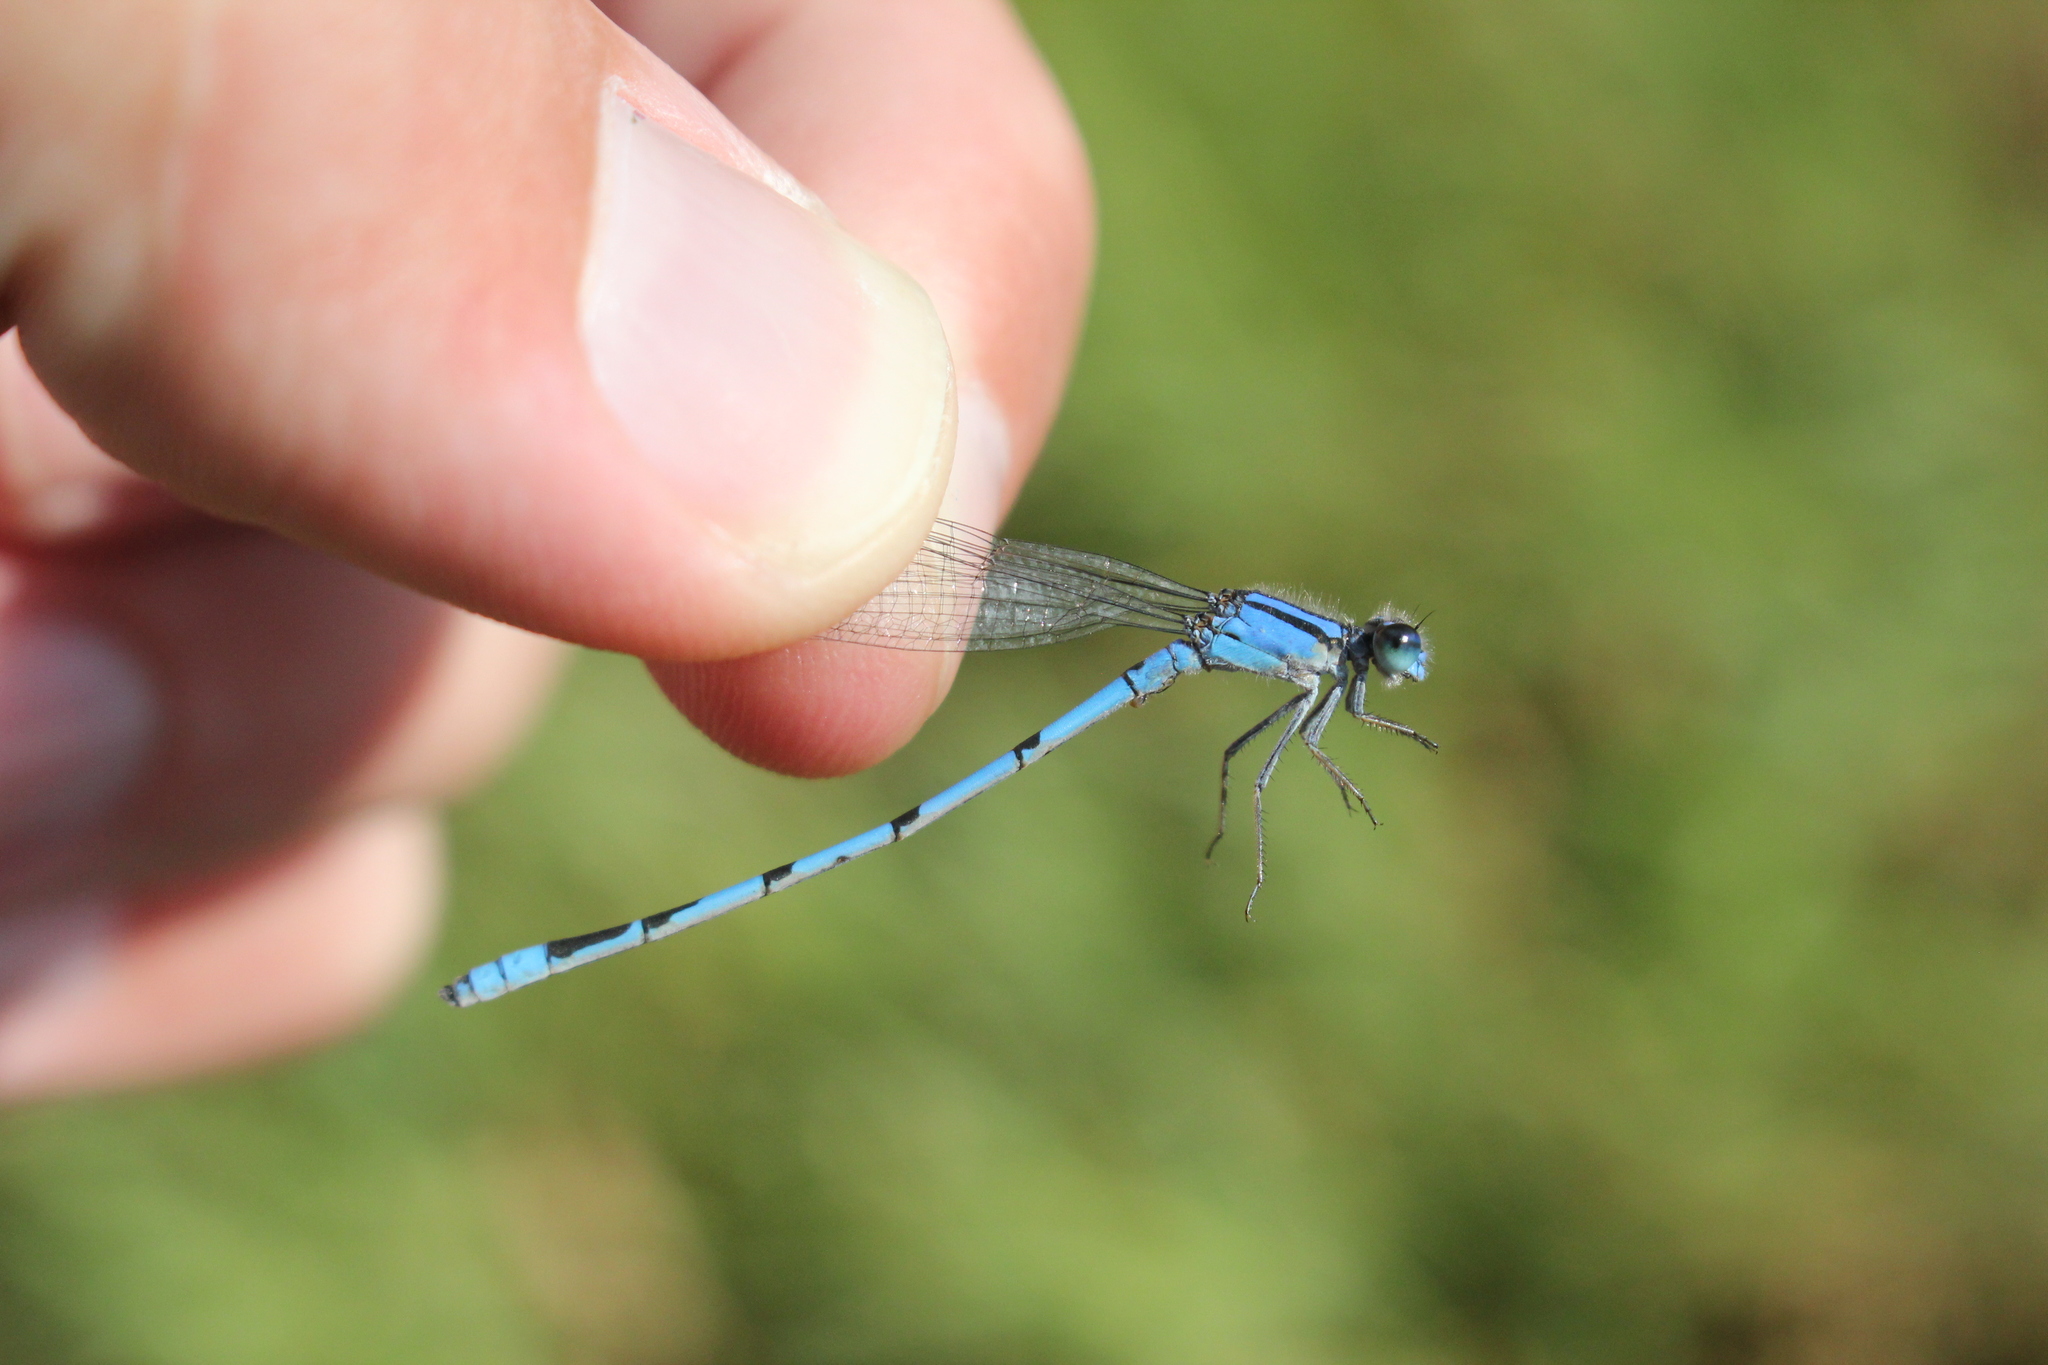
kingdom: Animalia
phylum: Arthropoda
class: Insecta
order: Odonata
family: Coenagrionidae
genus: Enallagma
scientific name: Enallagma civile
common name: Damselfly
